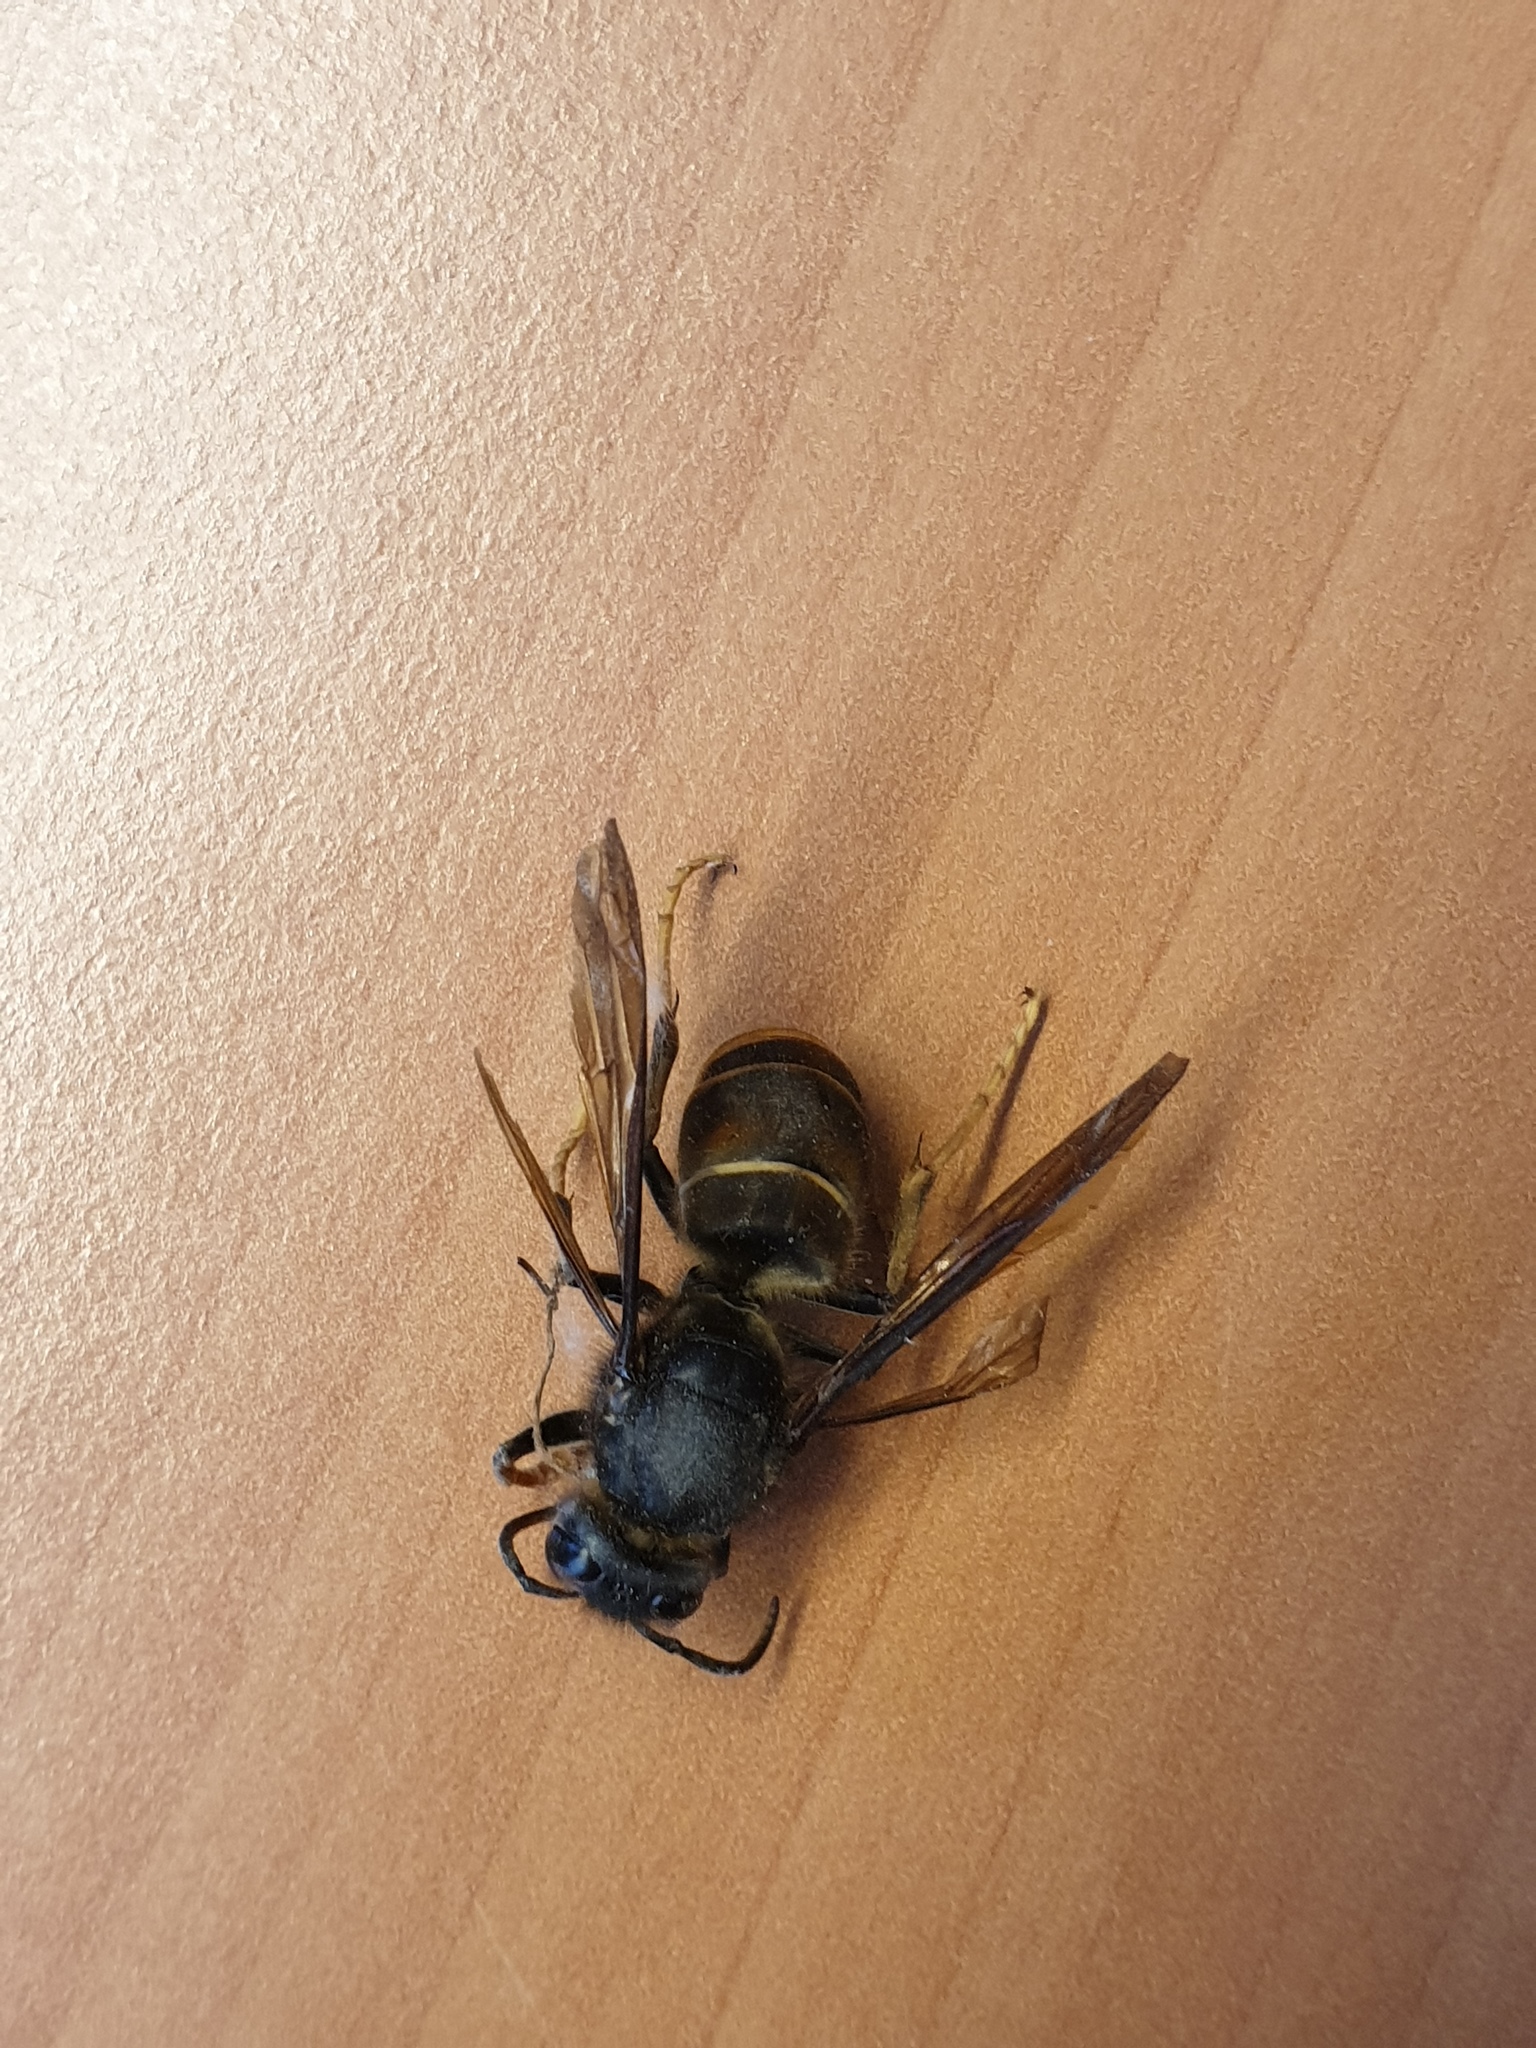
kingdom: Animalia
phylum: Arthropoda
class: Insecta
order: Hymenoptera
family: Vespidae
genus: Vespa
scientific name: Vespa velutina
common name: Asian hornet
